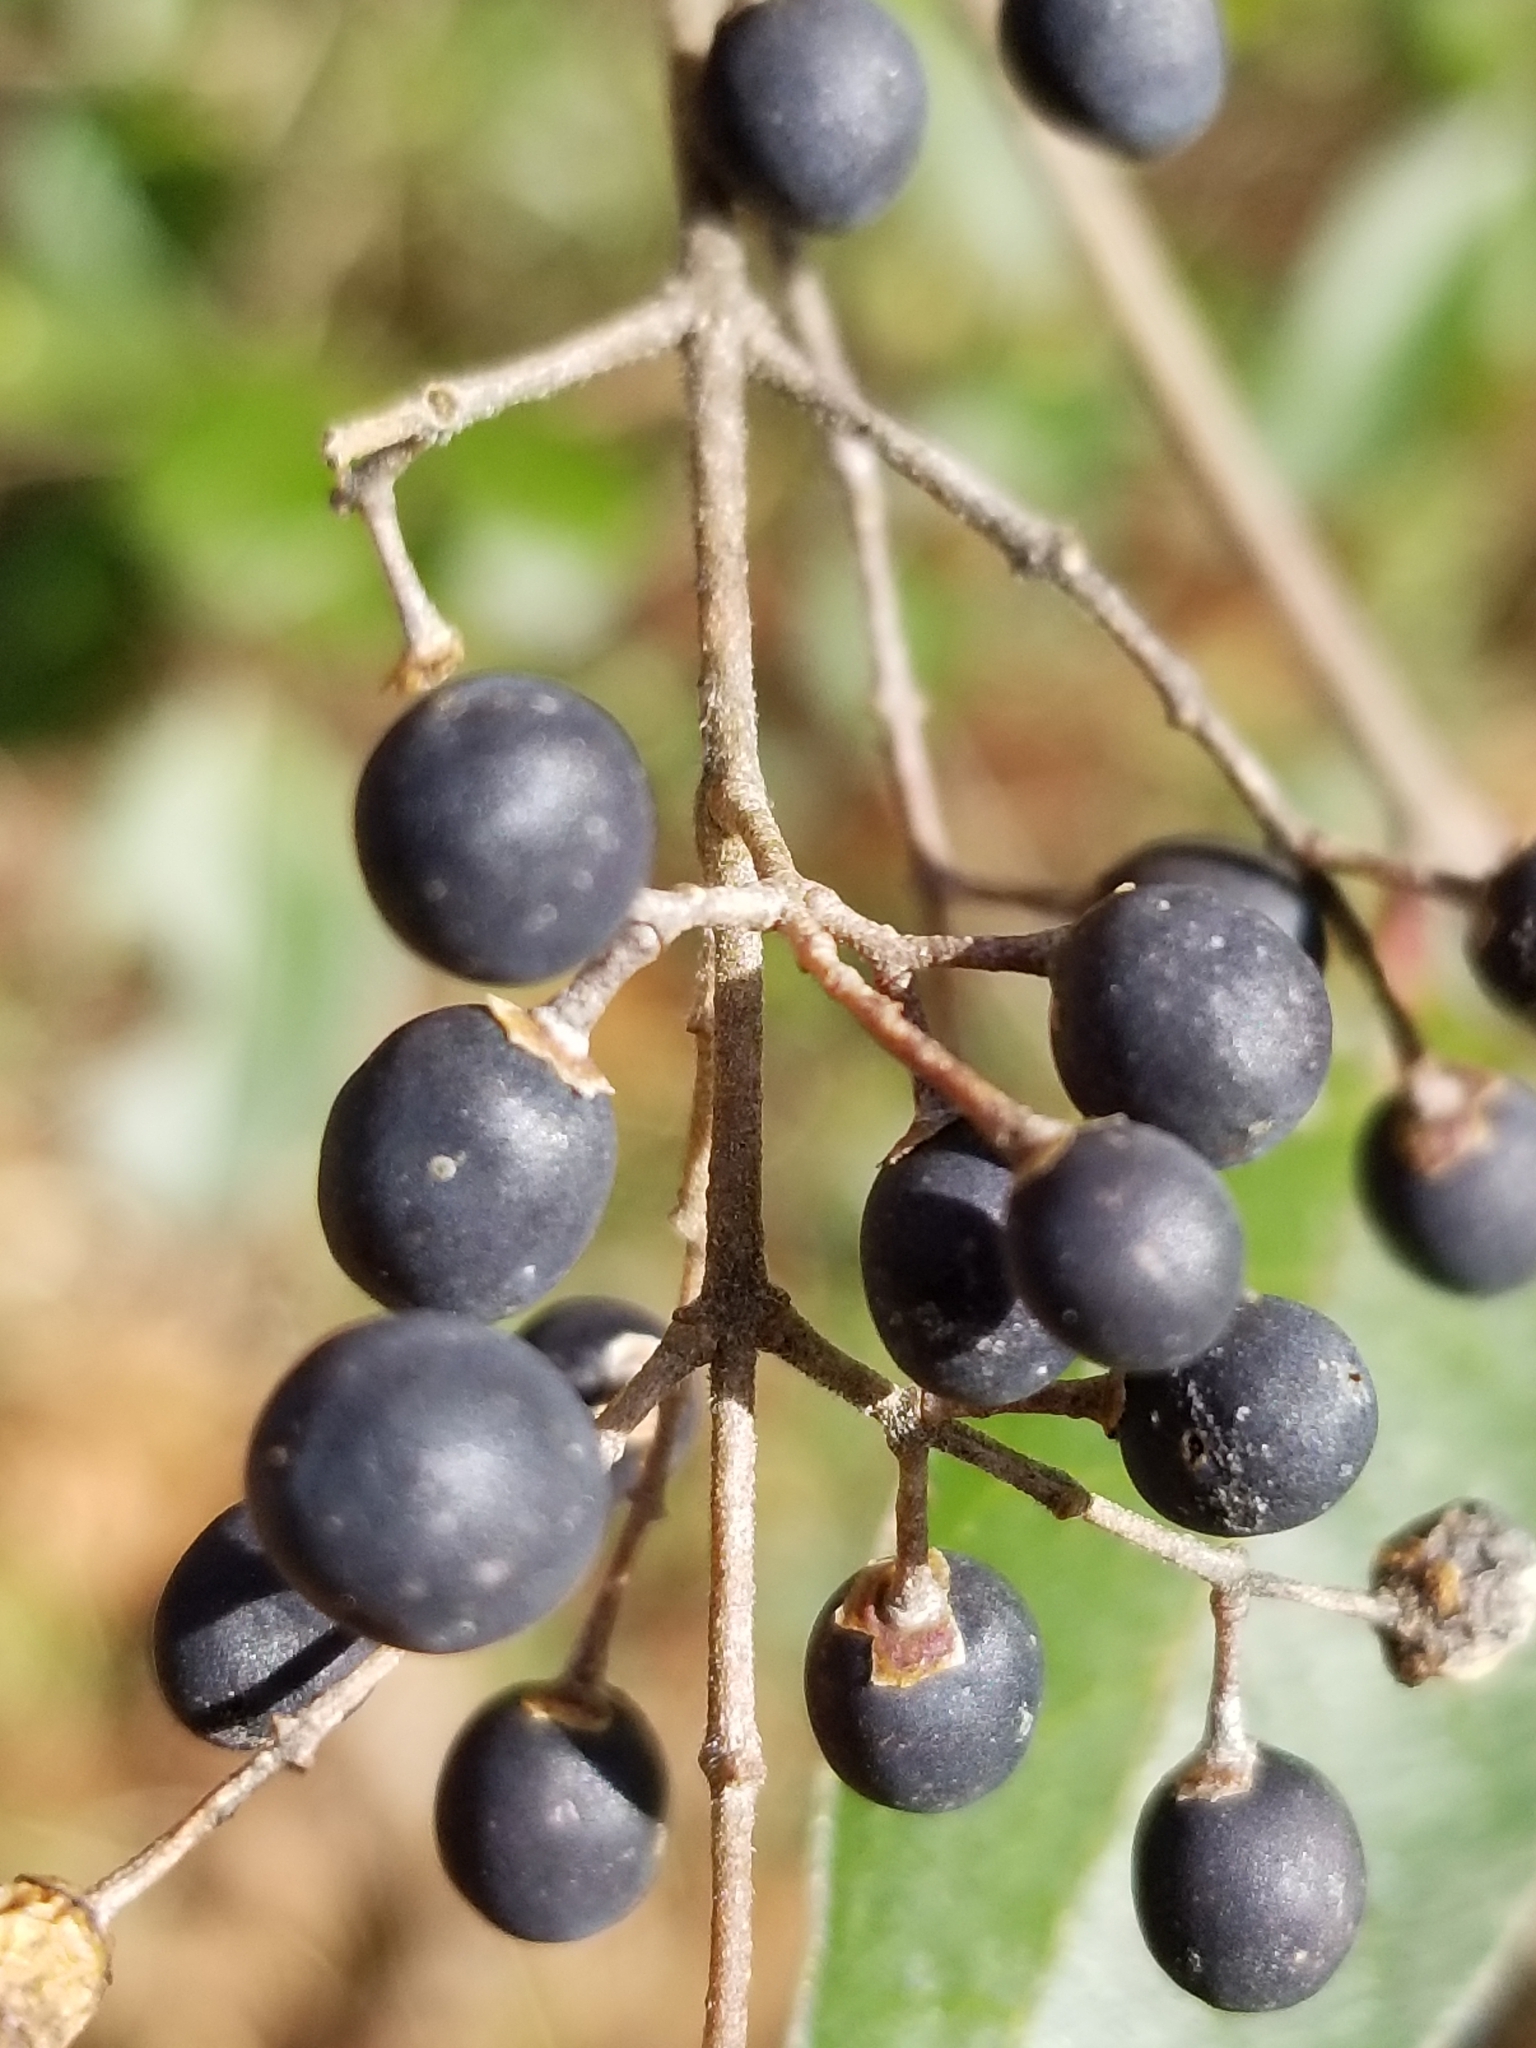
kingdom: Plantae
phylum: Tracheophyta
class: Magnoliopsida
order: Lamiales
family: Oleaceae
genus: Ligustrum
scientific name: Ligustrum sinense
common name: Chinese privet
